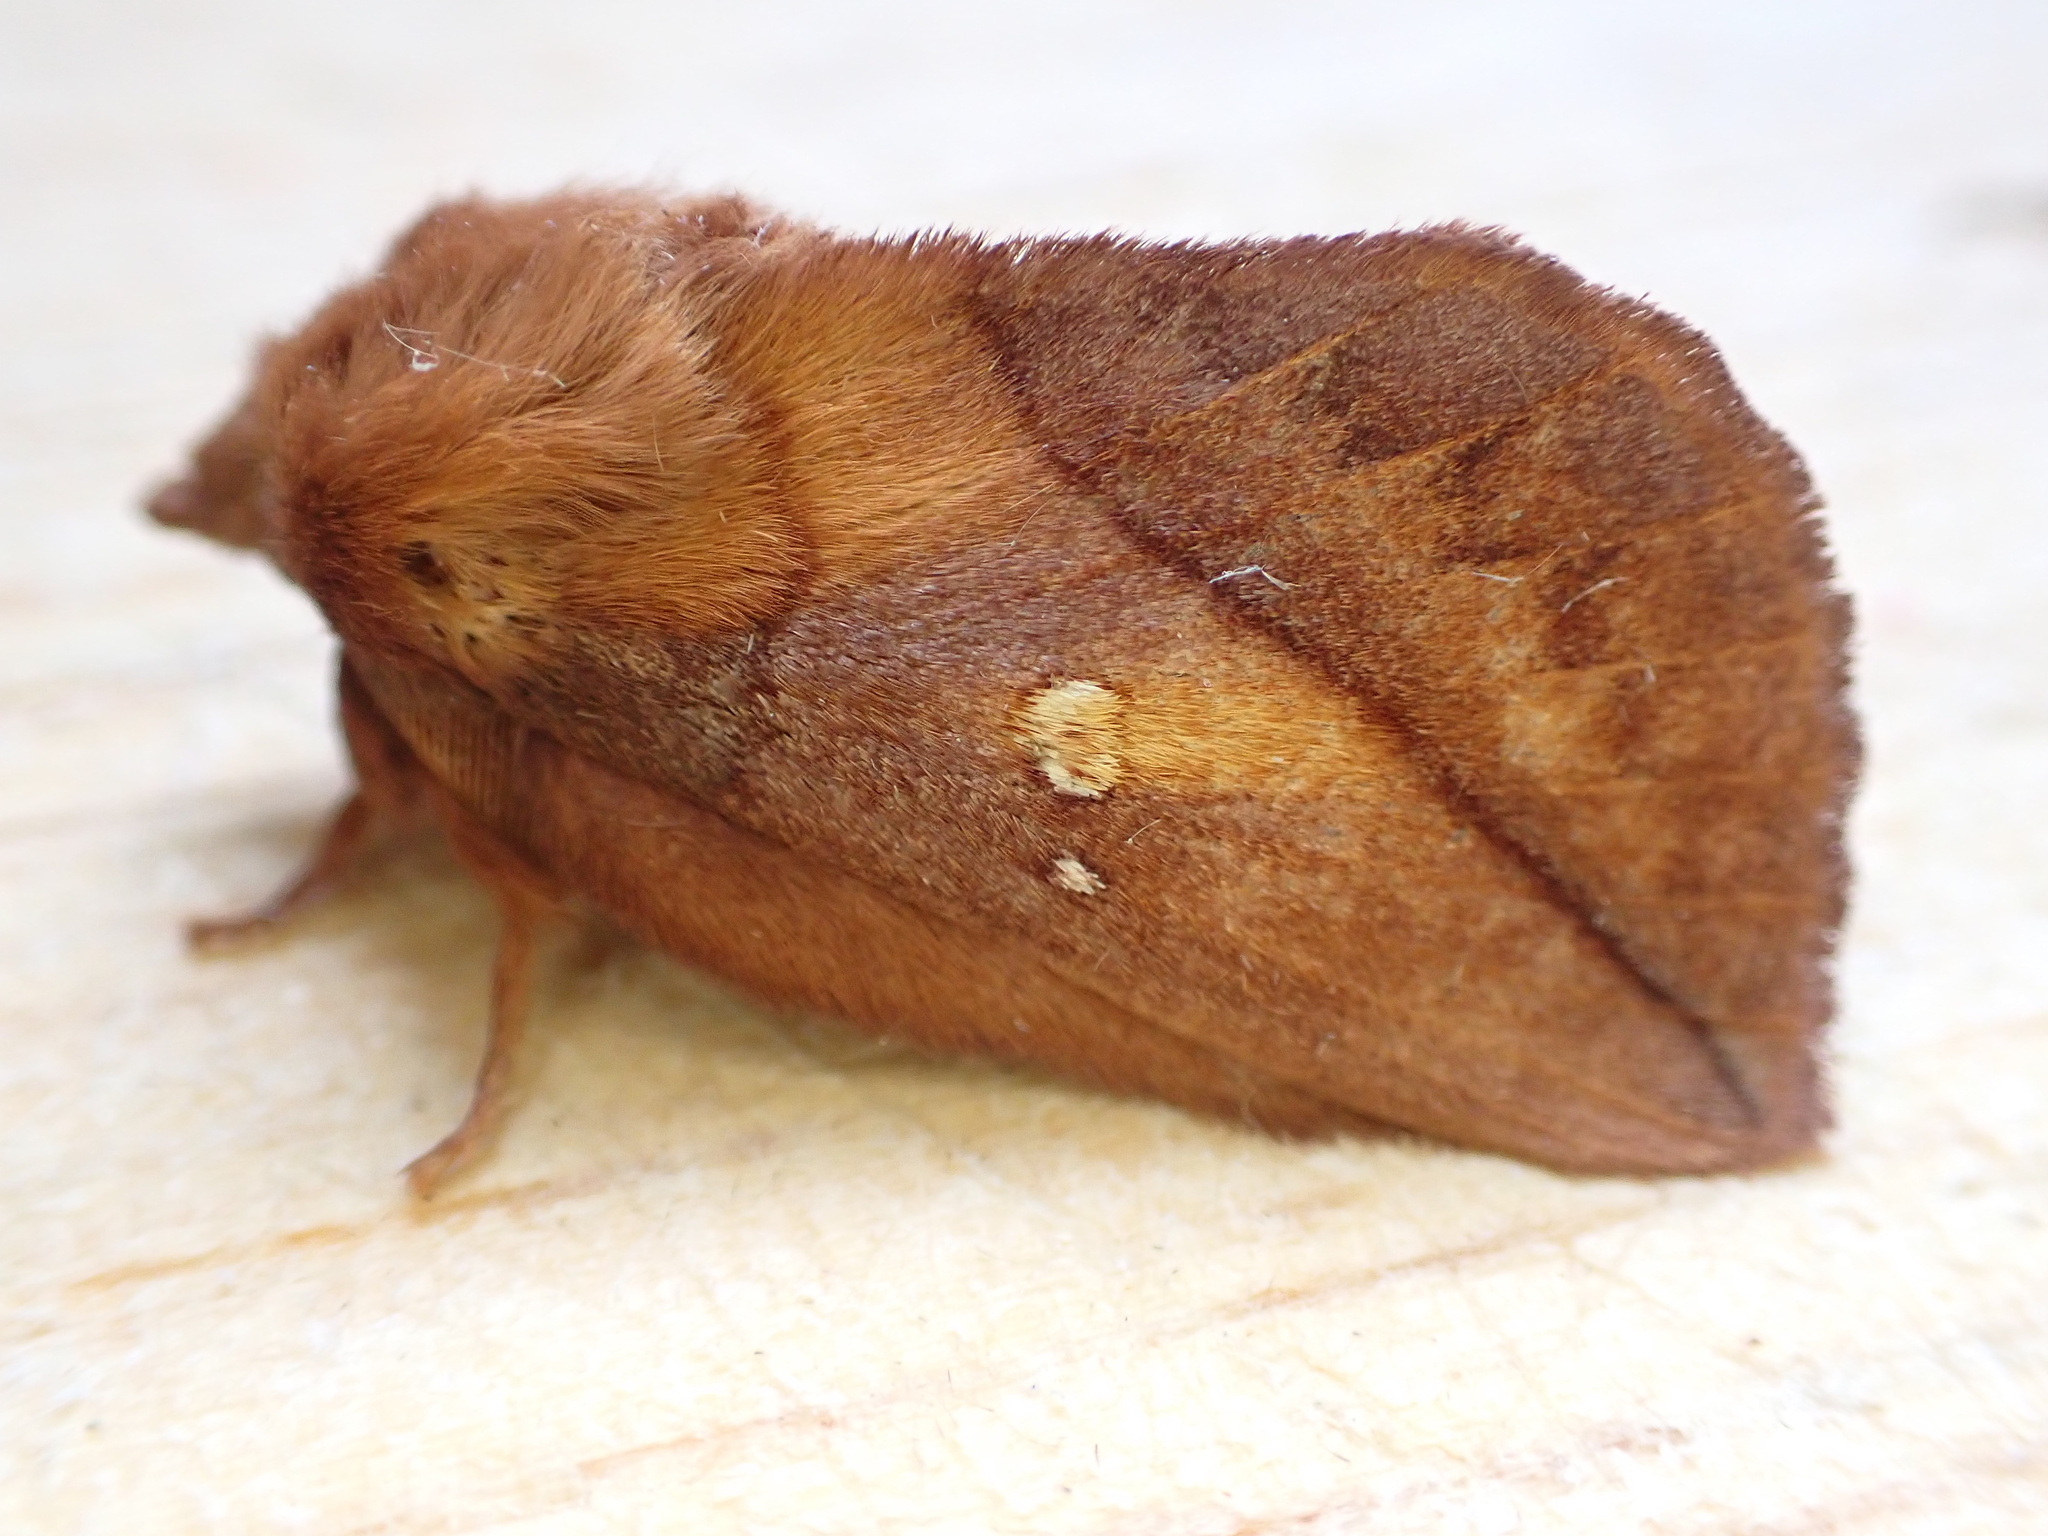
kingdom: Animalia
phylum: Arthropoda
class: Insecta
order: Lepidoptera
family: Lasiocampidae
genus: Euthrix
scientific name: Euthrix potatoria
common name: Drinker
